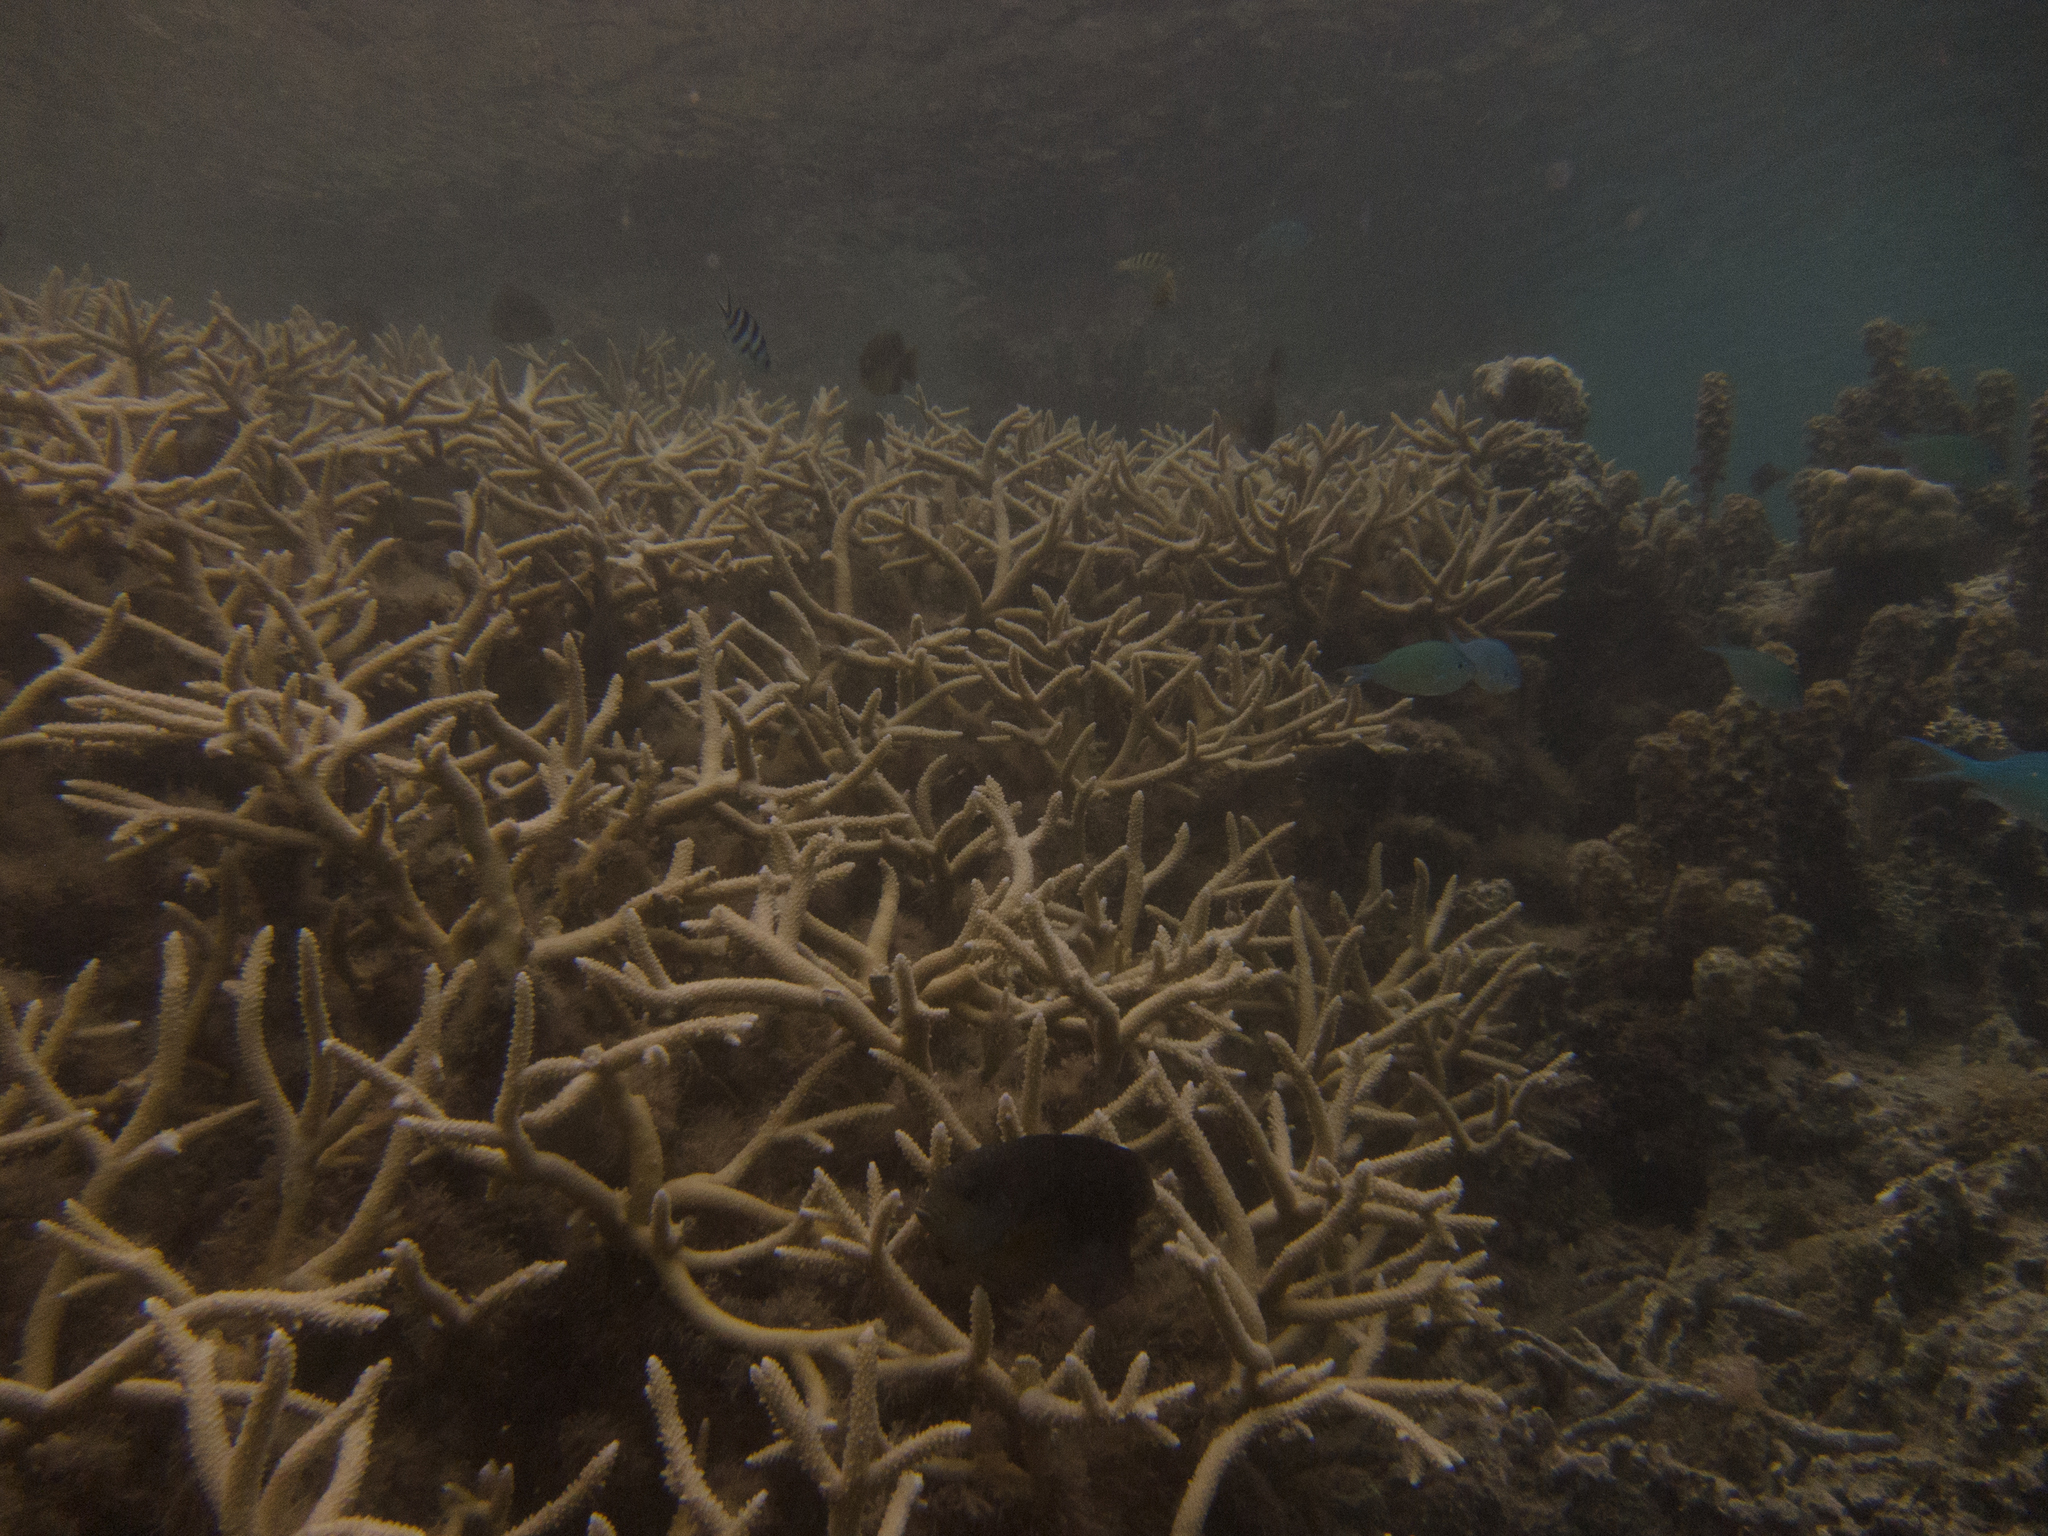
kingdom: Animalia
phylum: Chordata
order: Perciformes
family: Labridae
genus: Thalassoma
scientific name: Thalassoma hardwicke
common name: Sixbar wrasse
